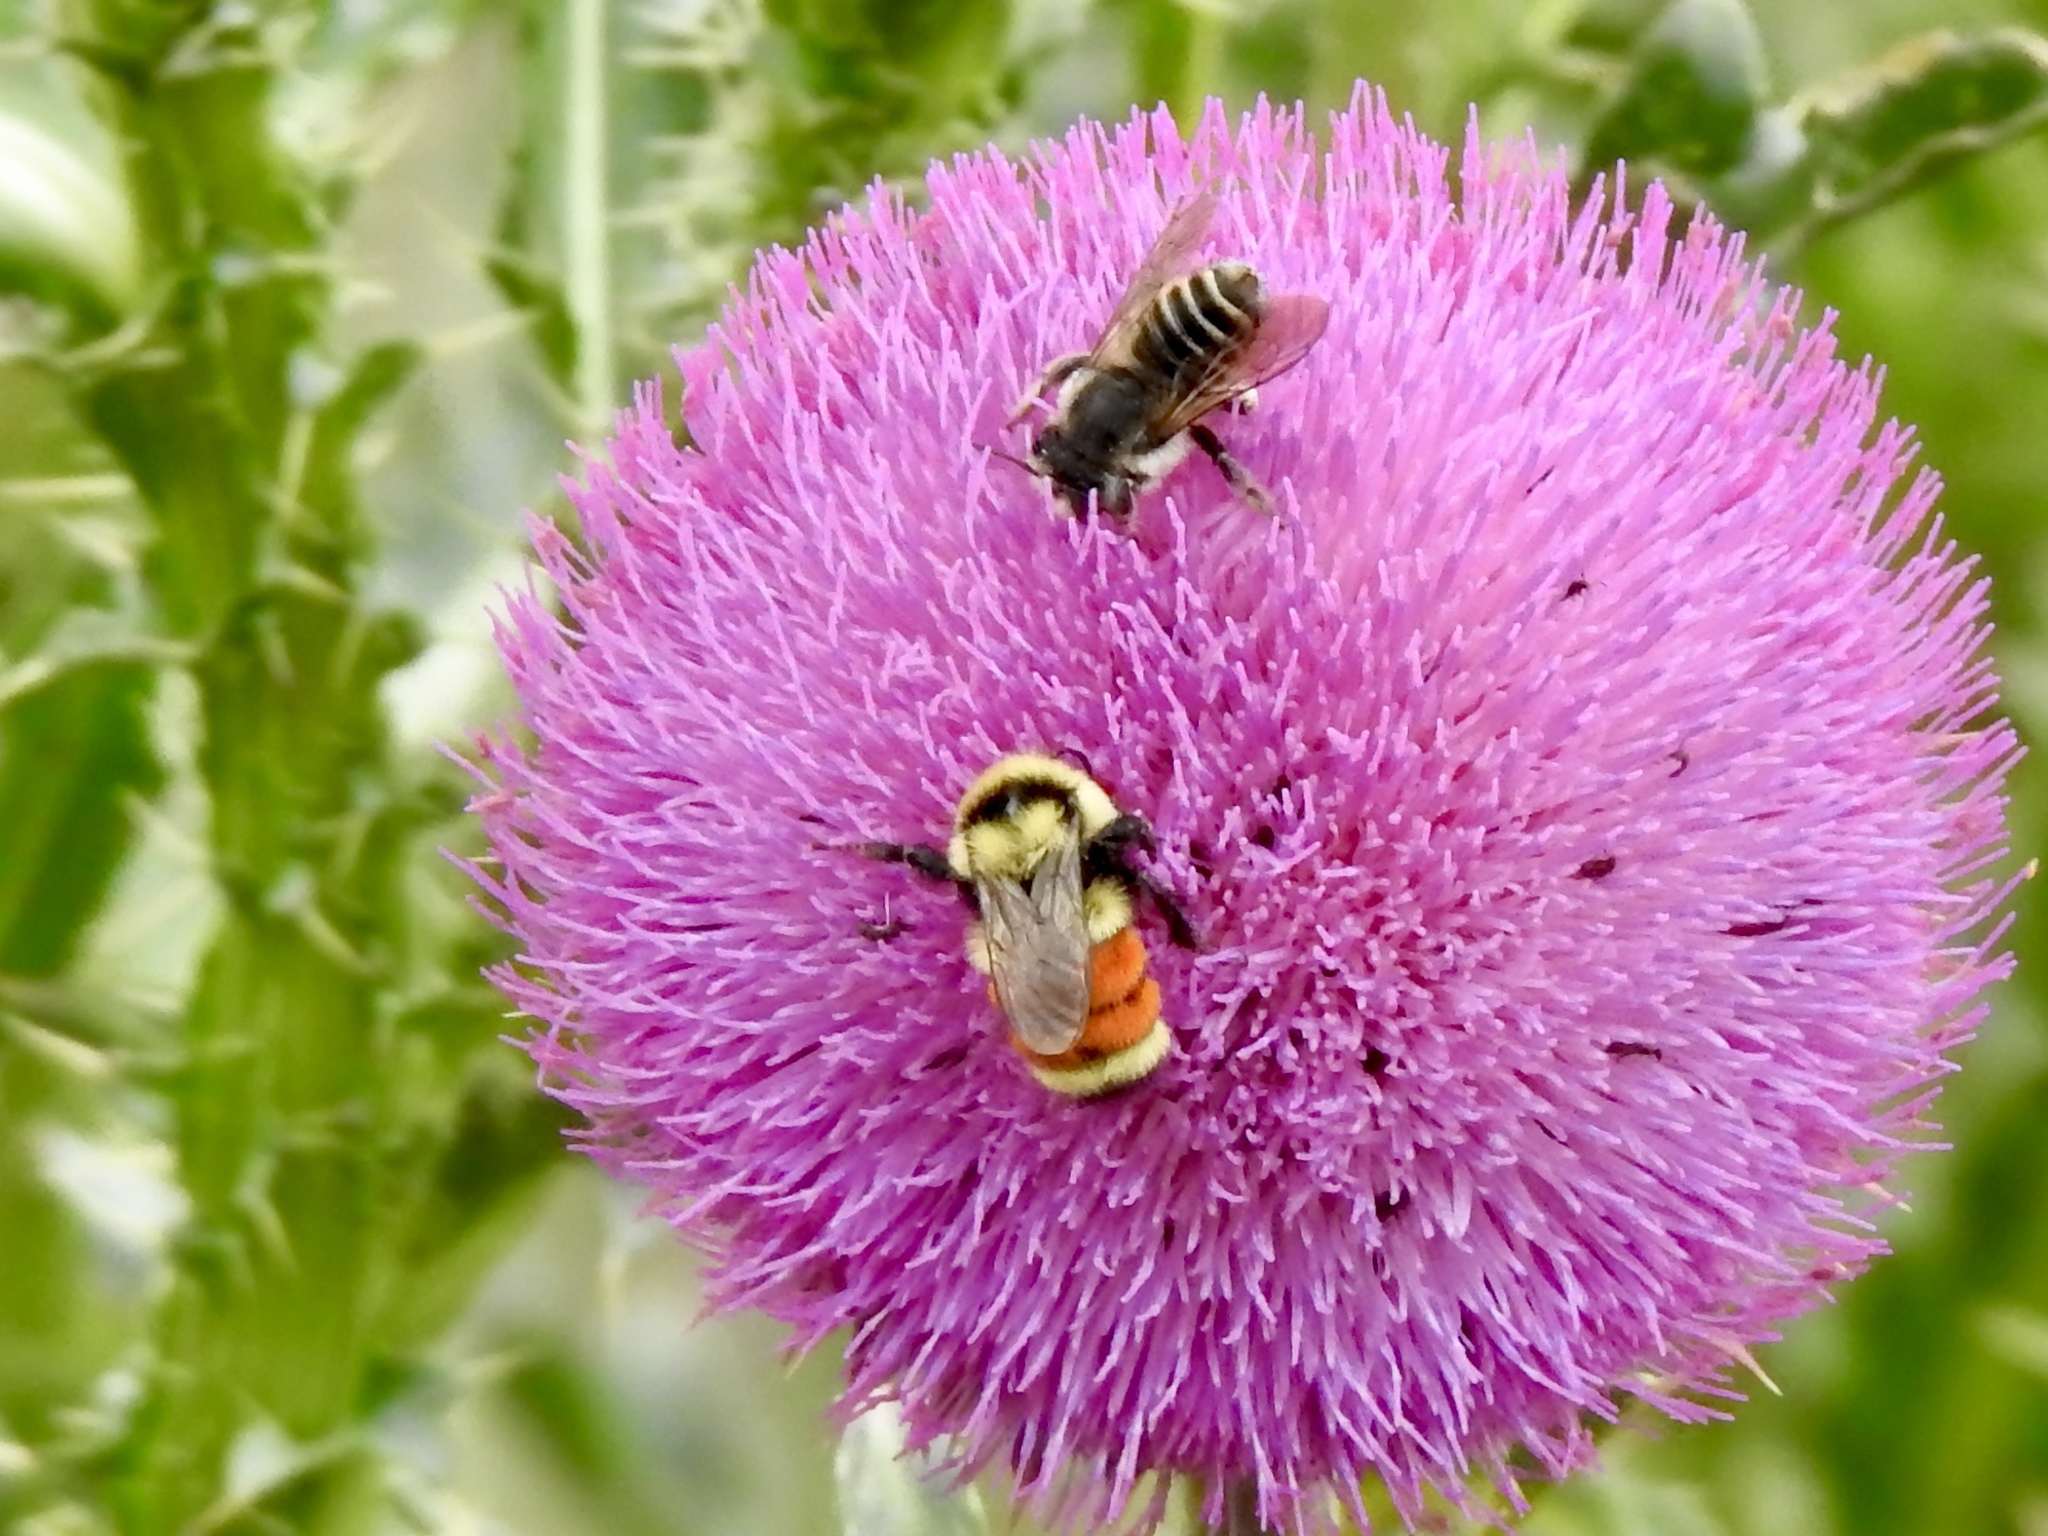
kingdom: Animalia
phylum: Arthropoda
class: Insecta
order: Hymenoptera
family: Apidae
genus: Bombus
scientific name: Bombus huntii
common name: Hunt bumble bee
